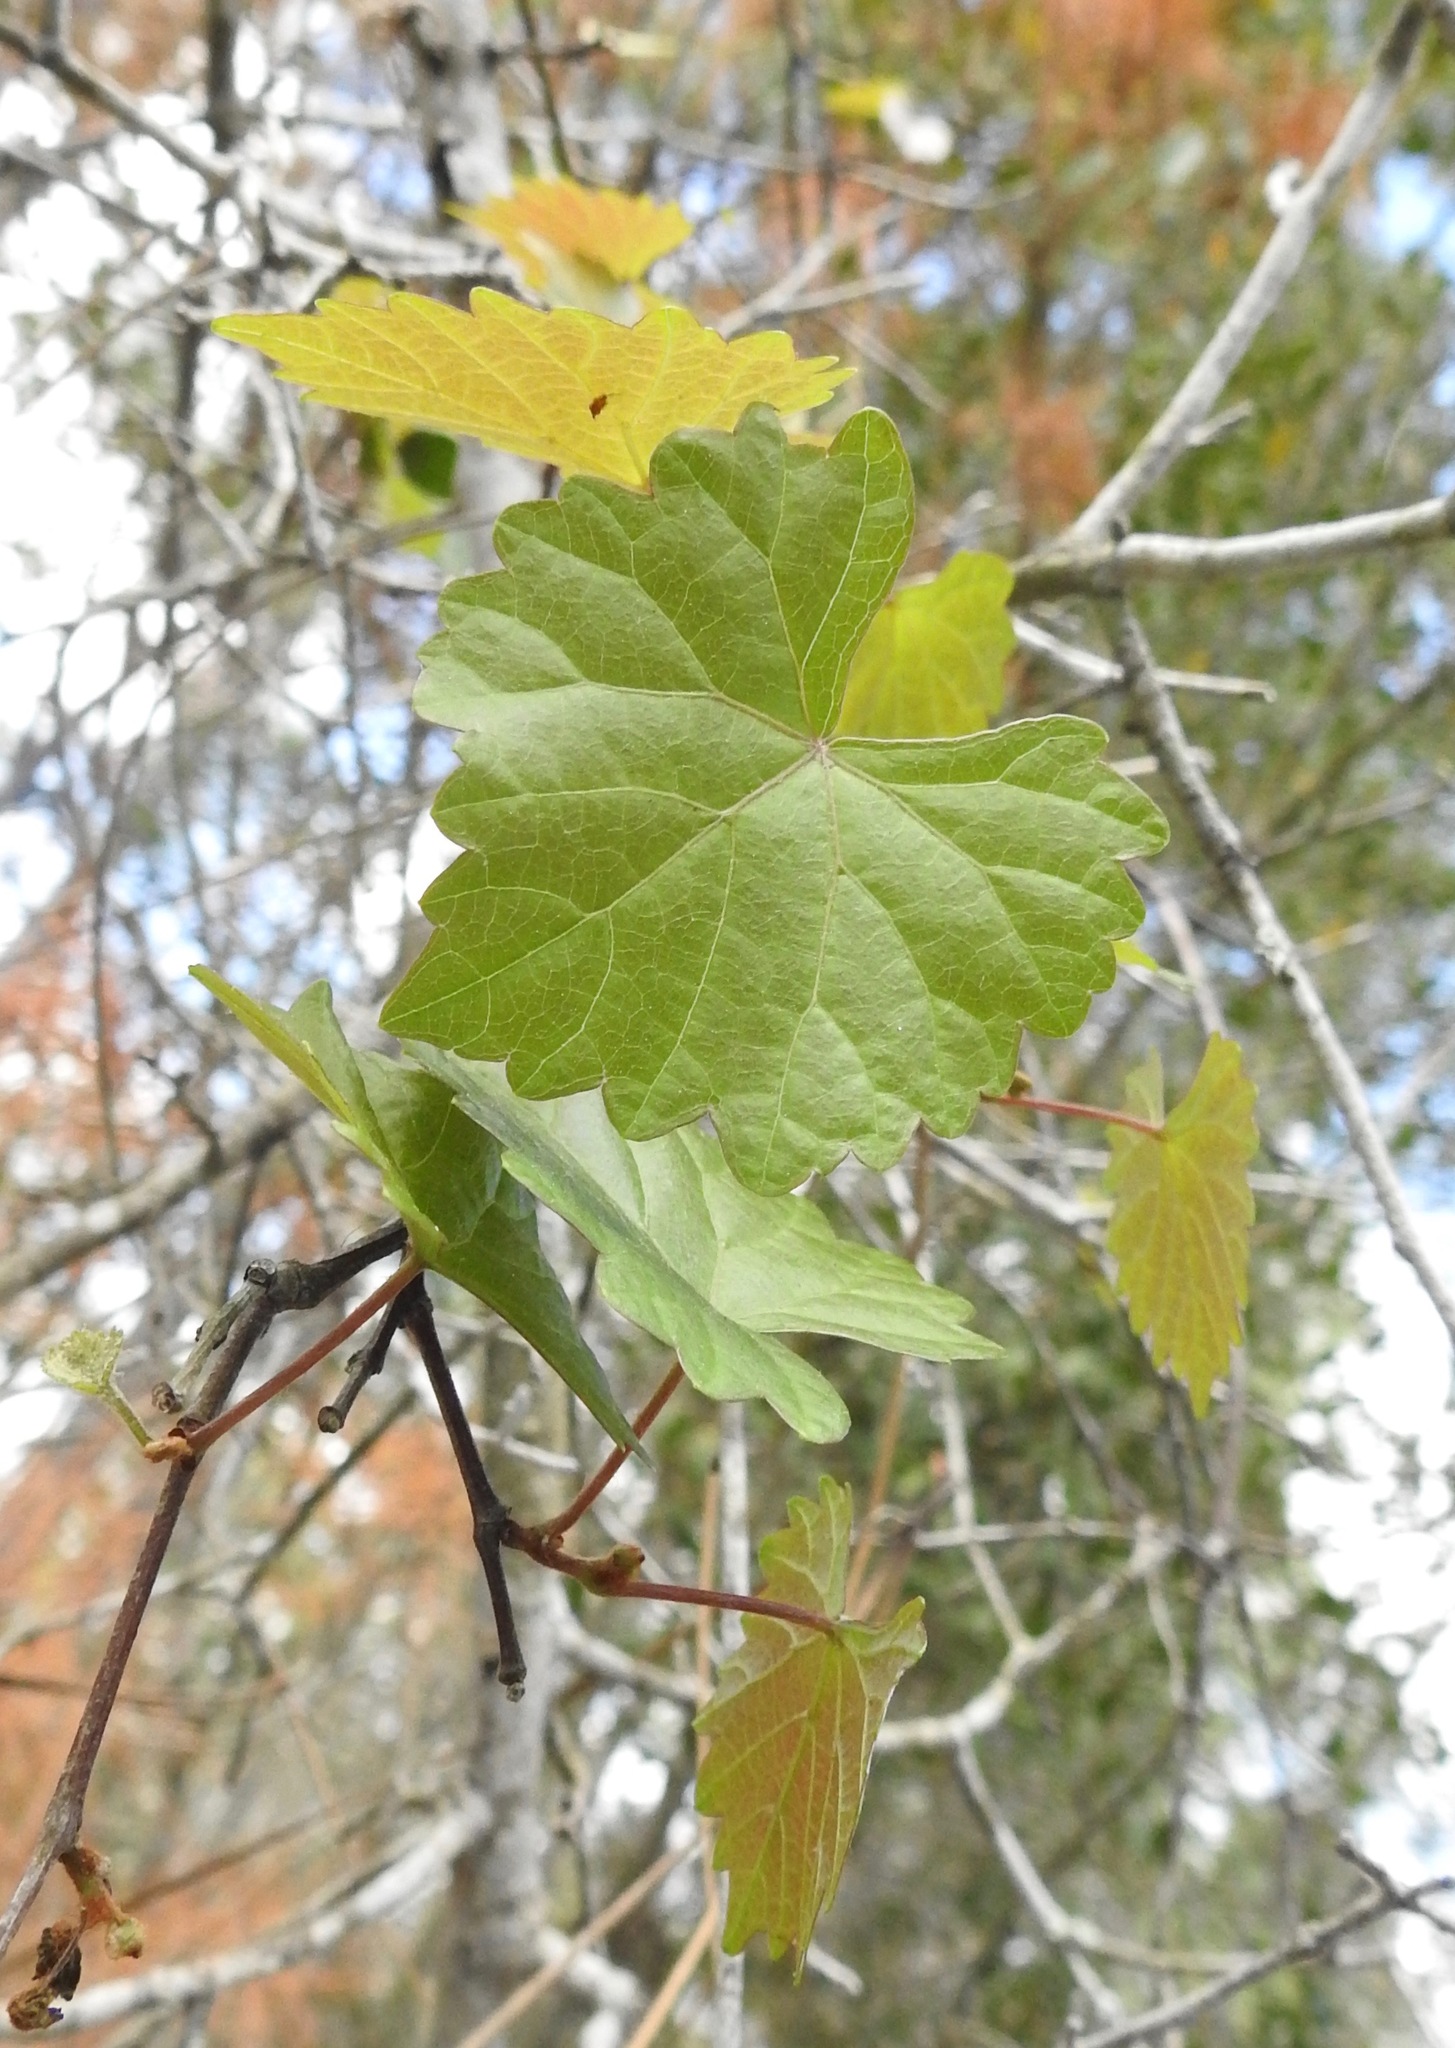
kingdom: Plantae
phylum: Tracheophyta
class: Magnoliopsida
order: Vitales
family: Vitaceae
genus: Vitis
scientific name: Vitis rotundifolia
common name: Muscadine grape
